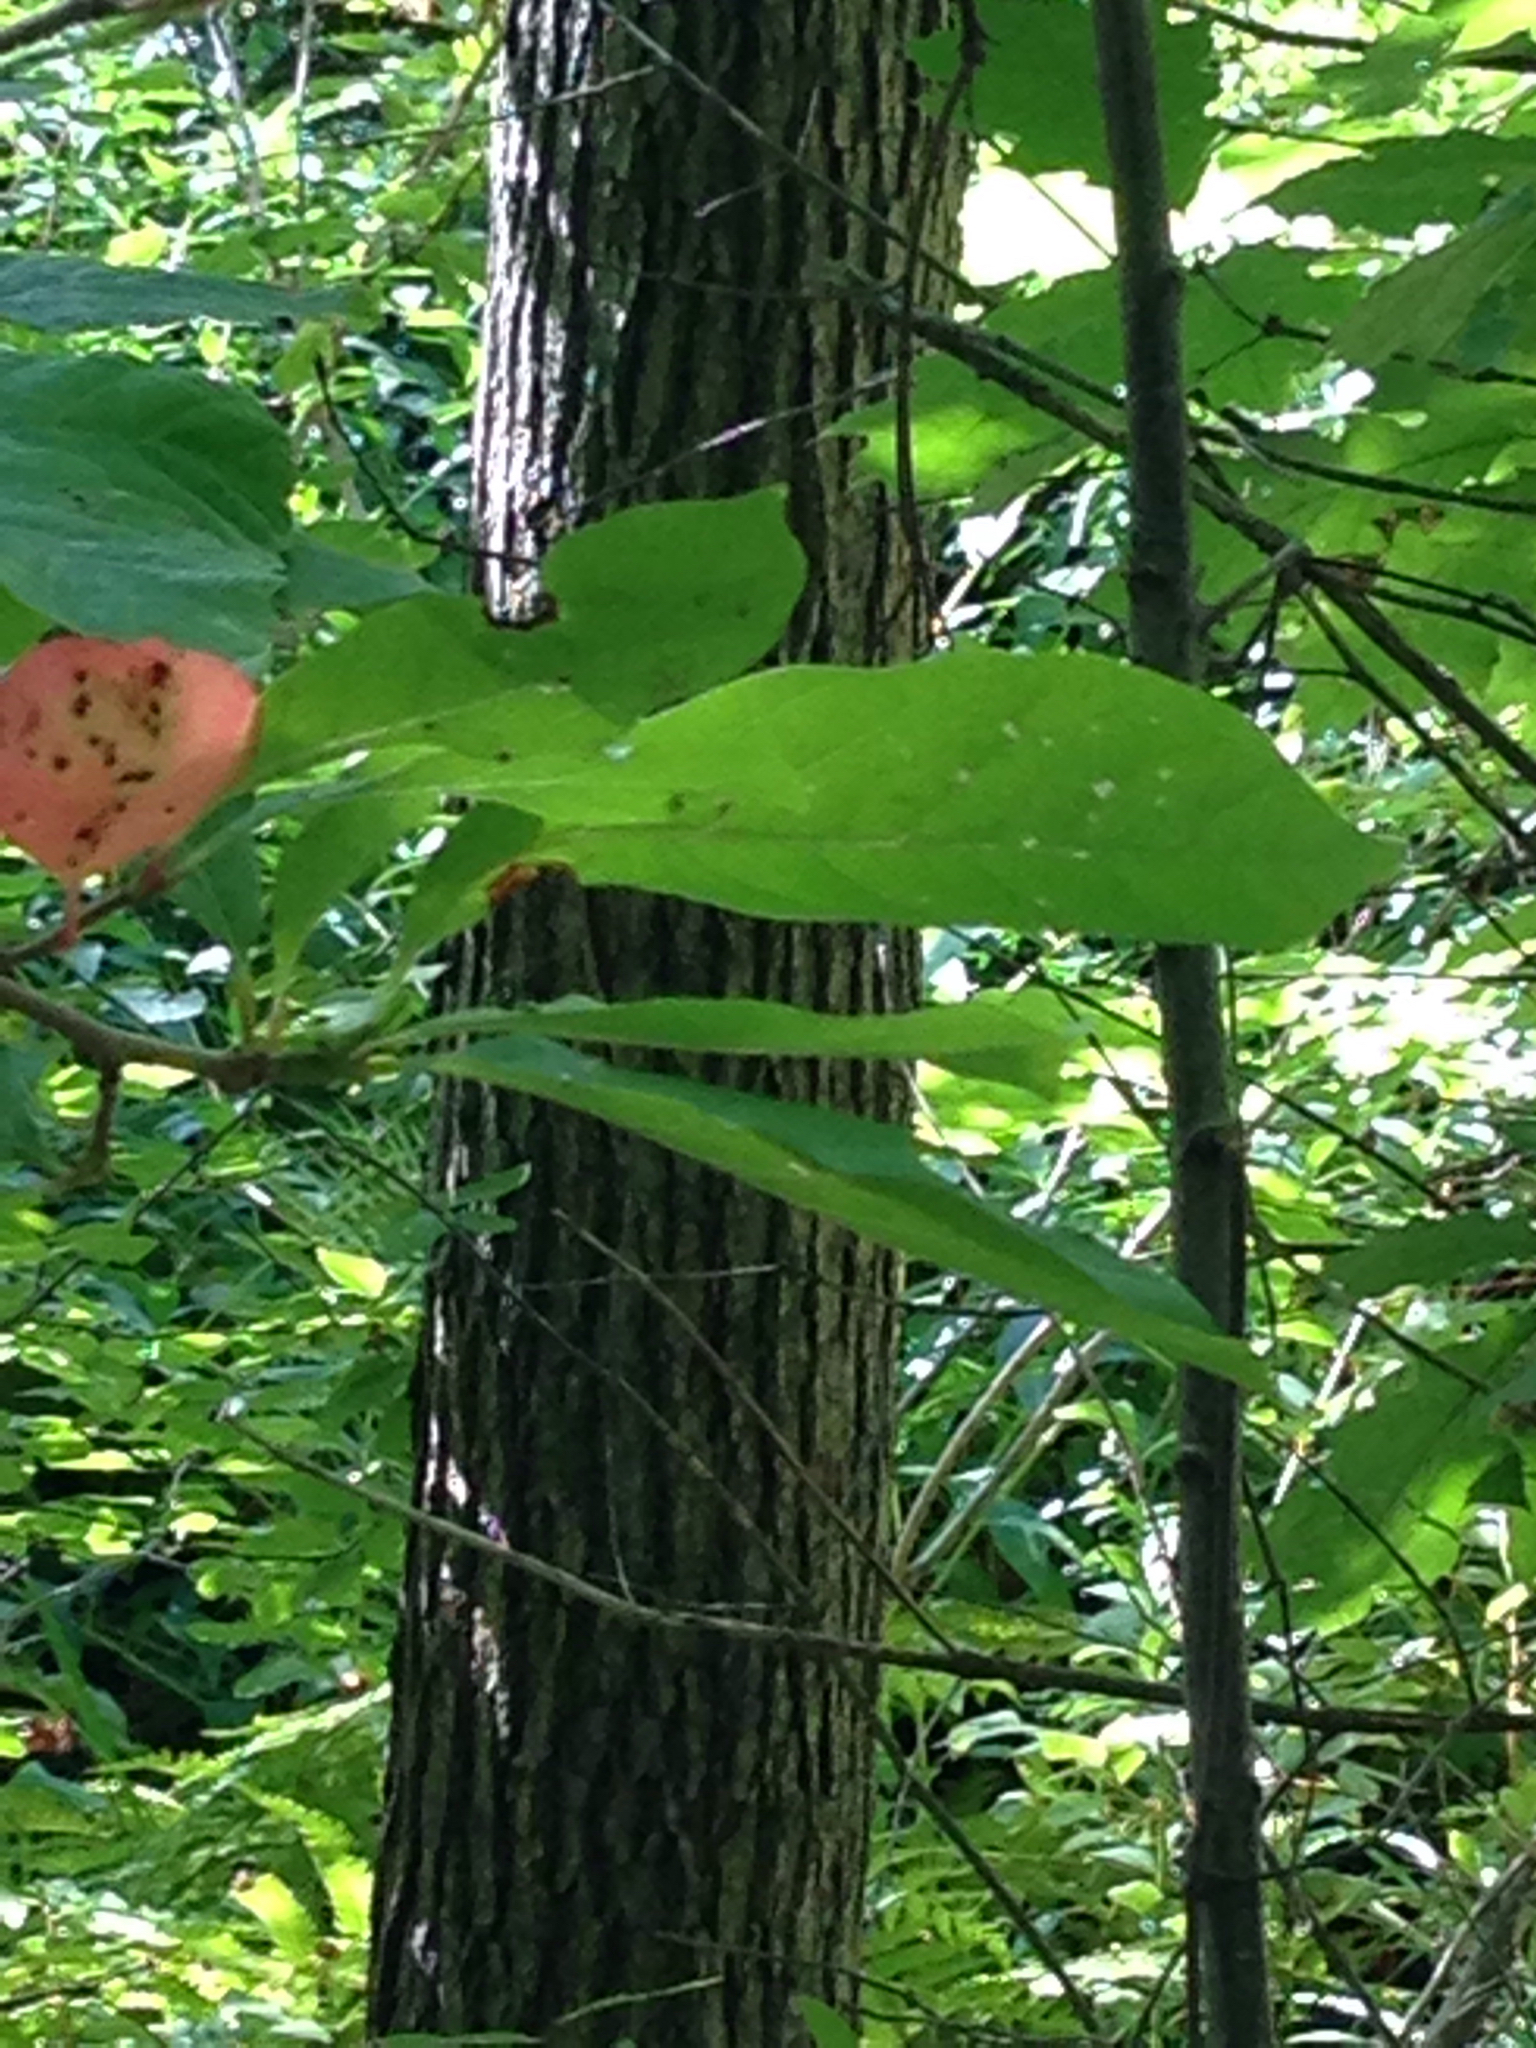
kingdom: Plantae
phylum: Tracheophyta
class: Magnoliopsida
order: Cornales
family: Nyssaceae
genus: Nyssa
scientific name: Nyssa sylvatica
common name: Black tupelo
